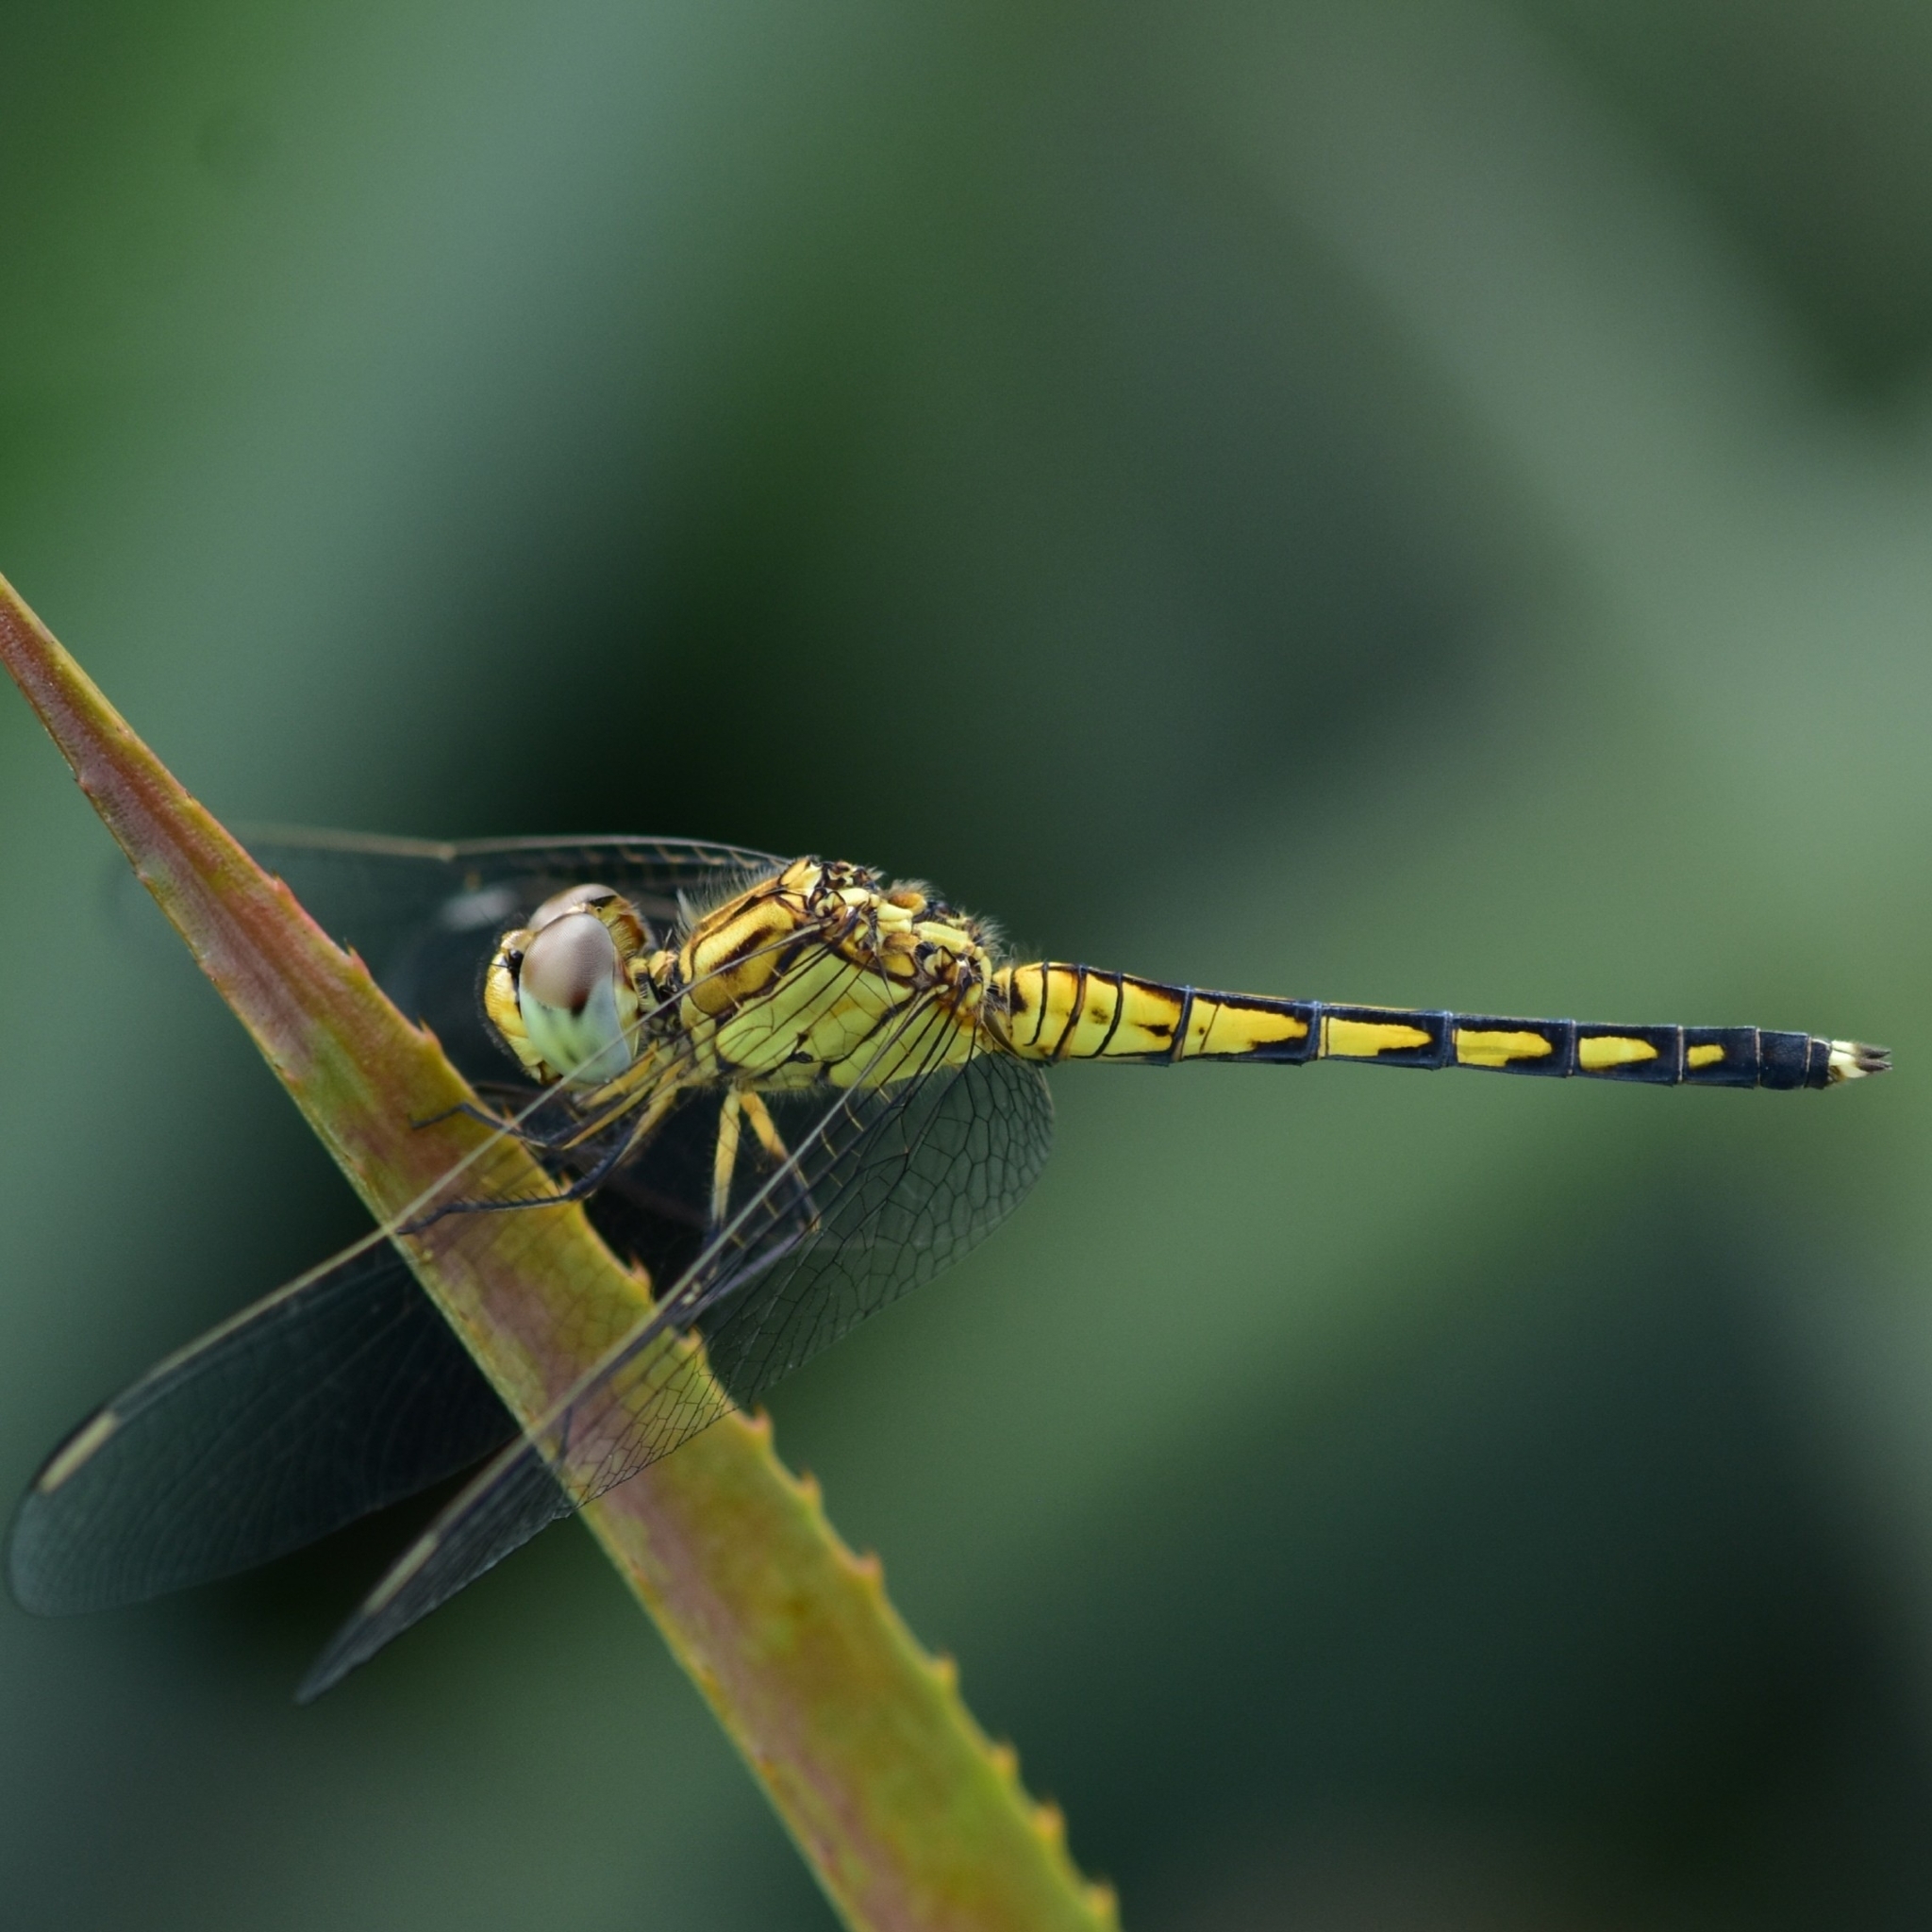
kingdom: Animalia
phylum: Arthropoda
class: Insecta
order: Odonata
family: Libellulidae
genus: Indothemis
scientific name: Indothemis carnatica
